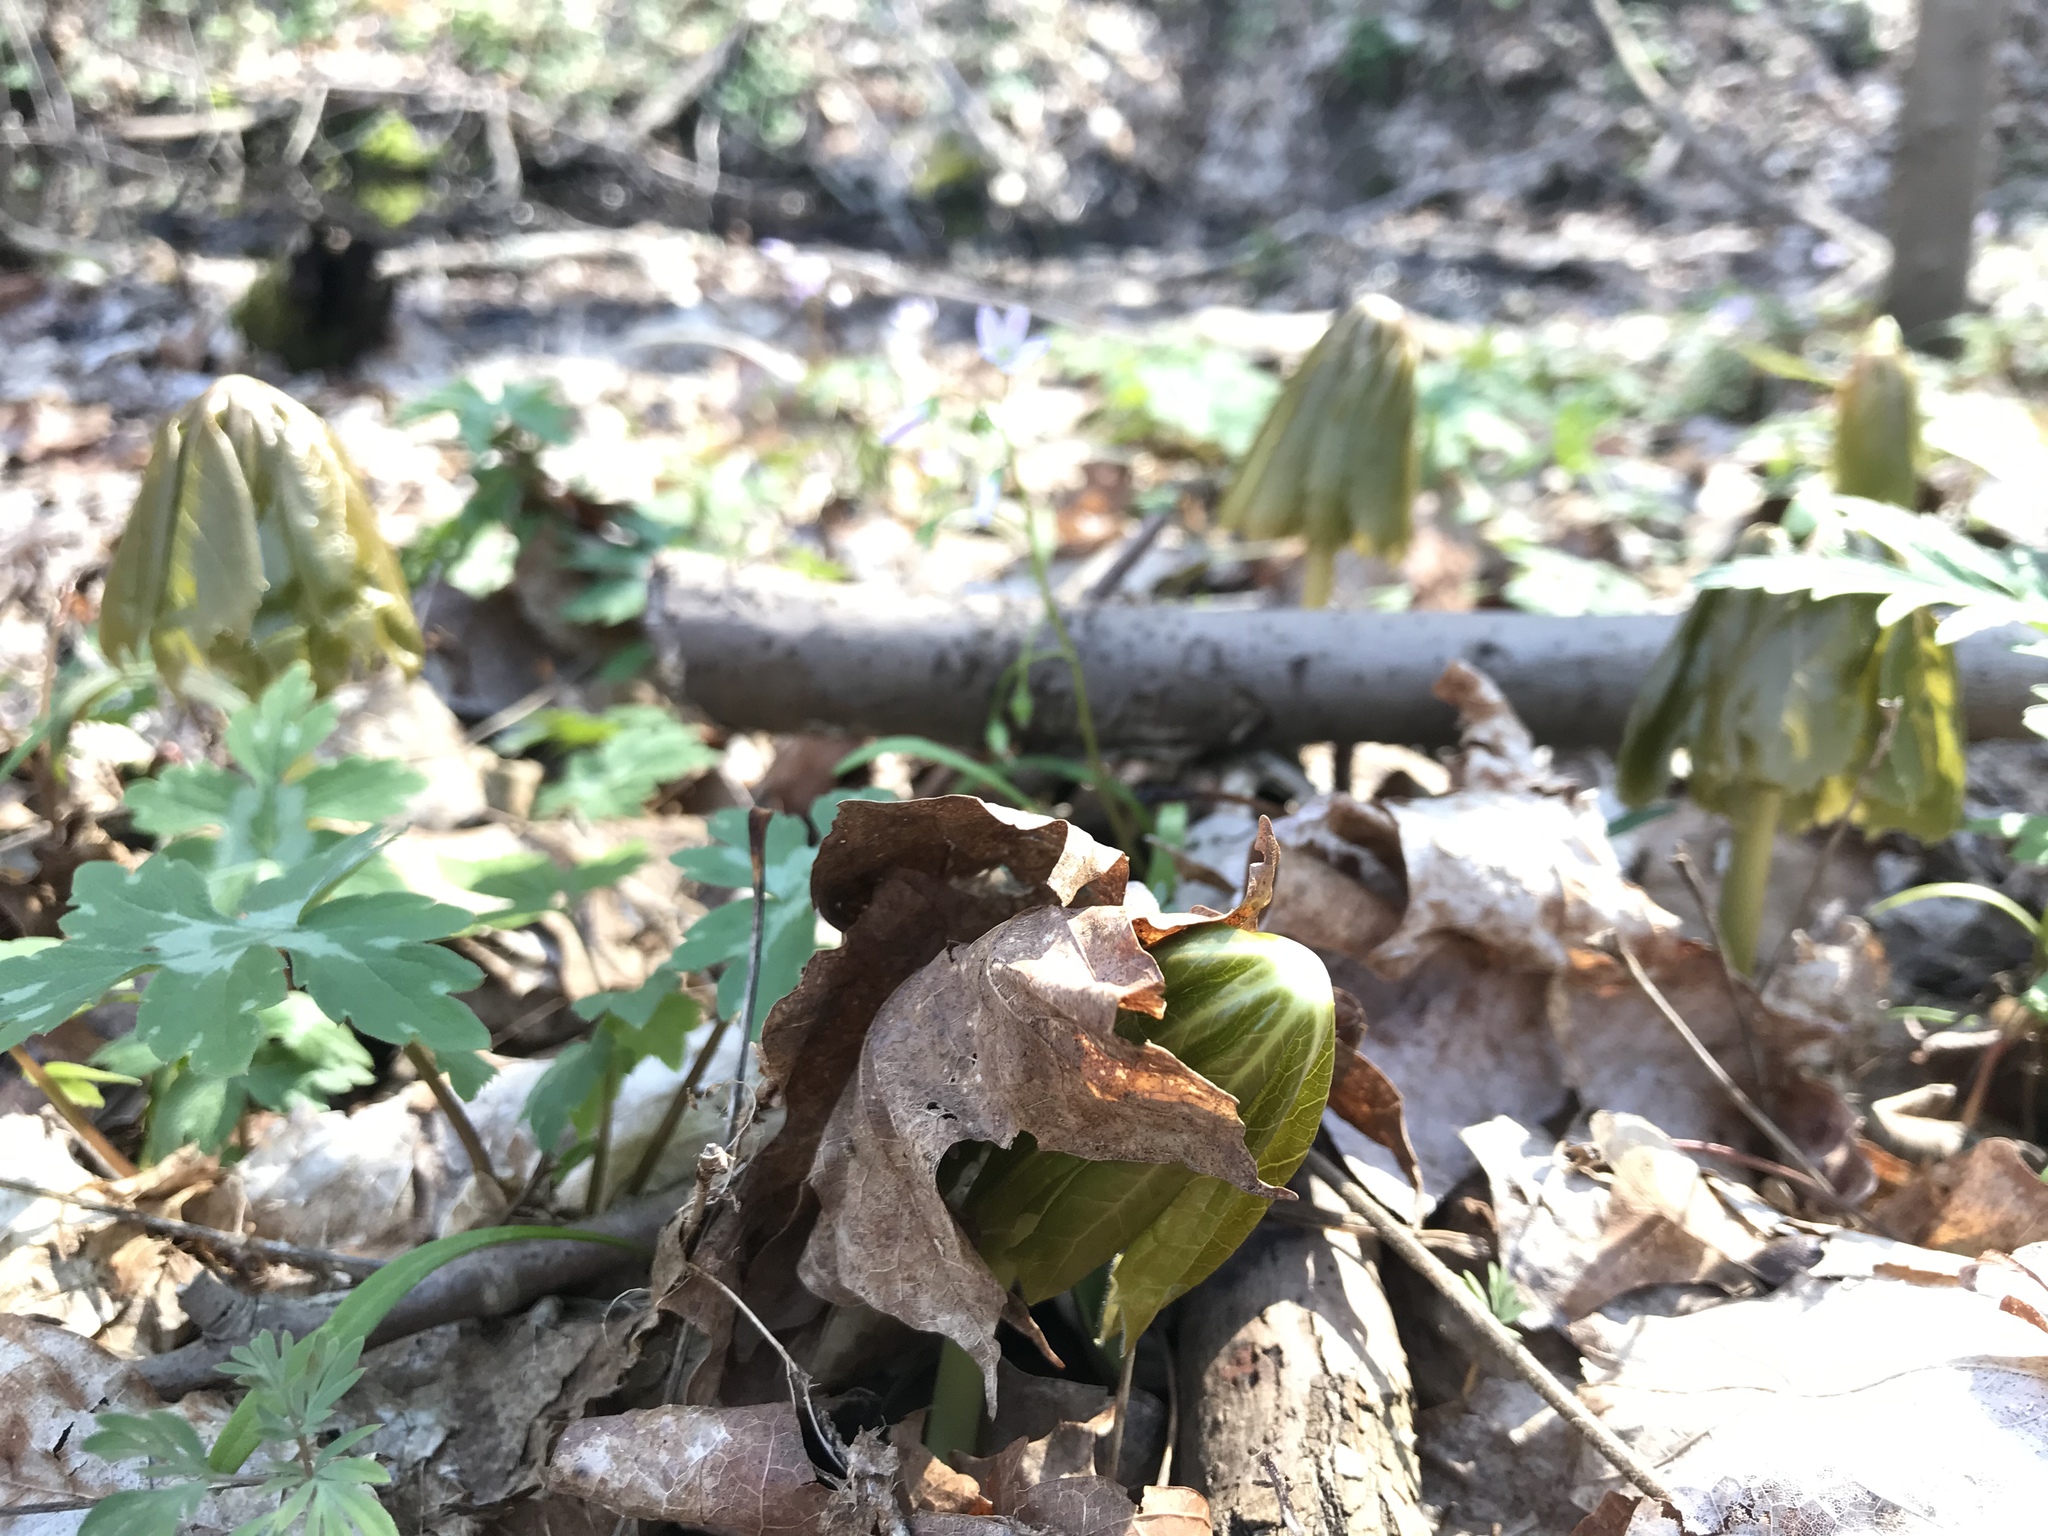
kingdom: Plantae
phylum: Tracheophyta
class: Magnoliopsida
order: Ranunculales
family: Berberidaceae
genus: Podophyllum
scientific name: Podophyllum peltatum
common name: Wild mandrake
